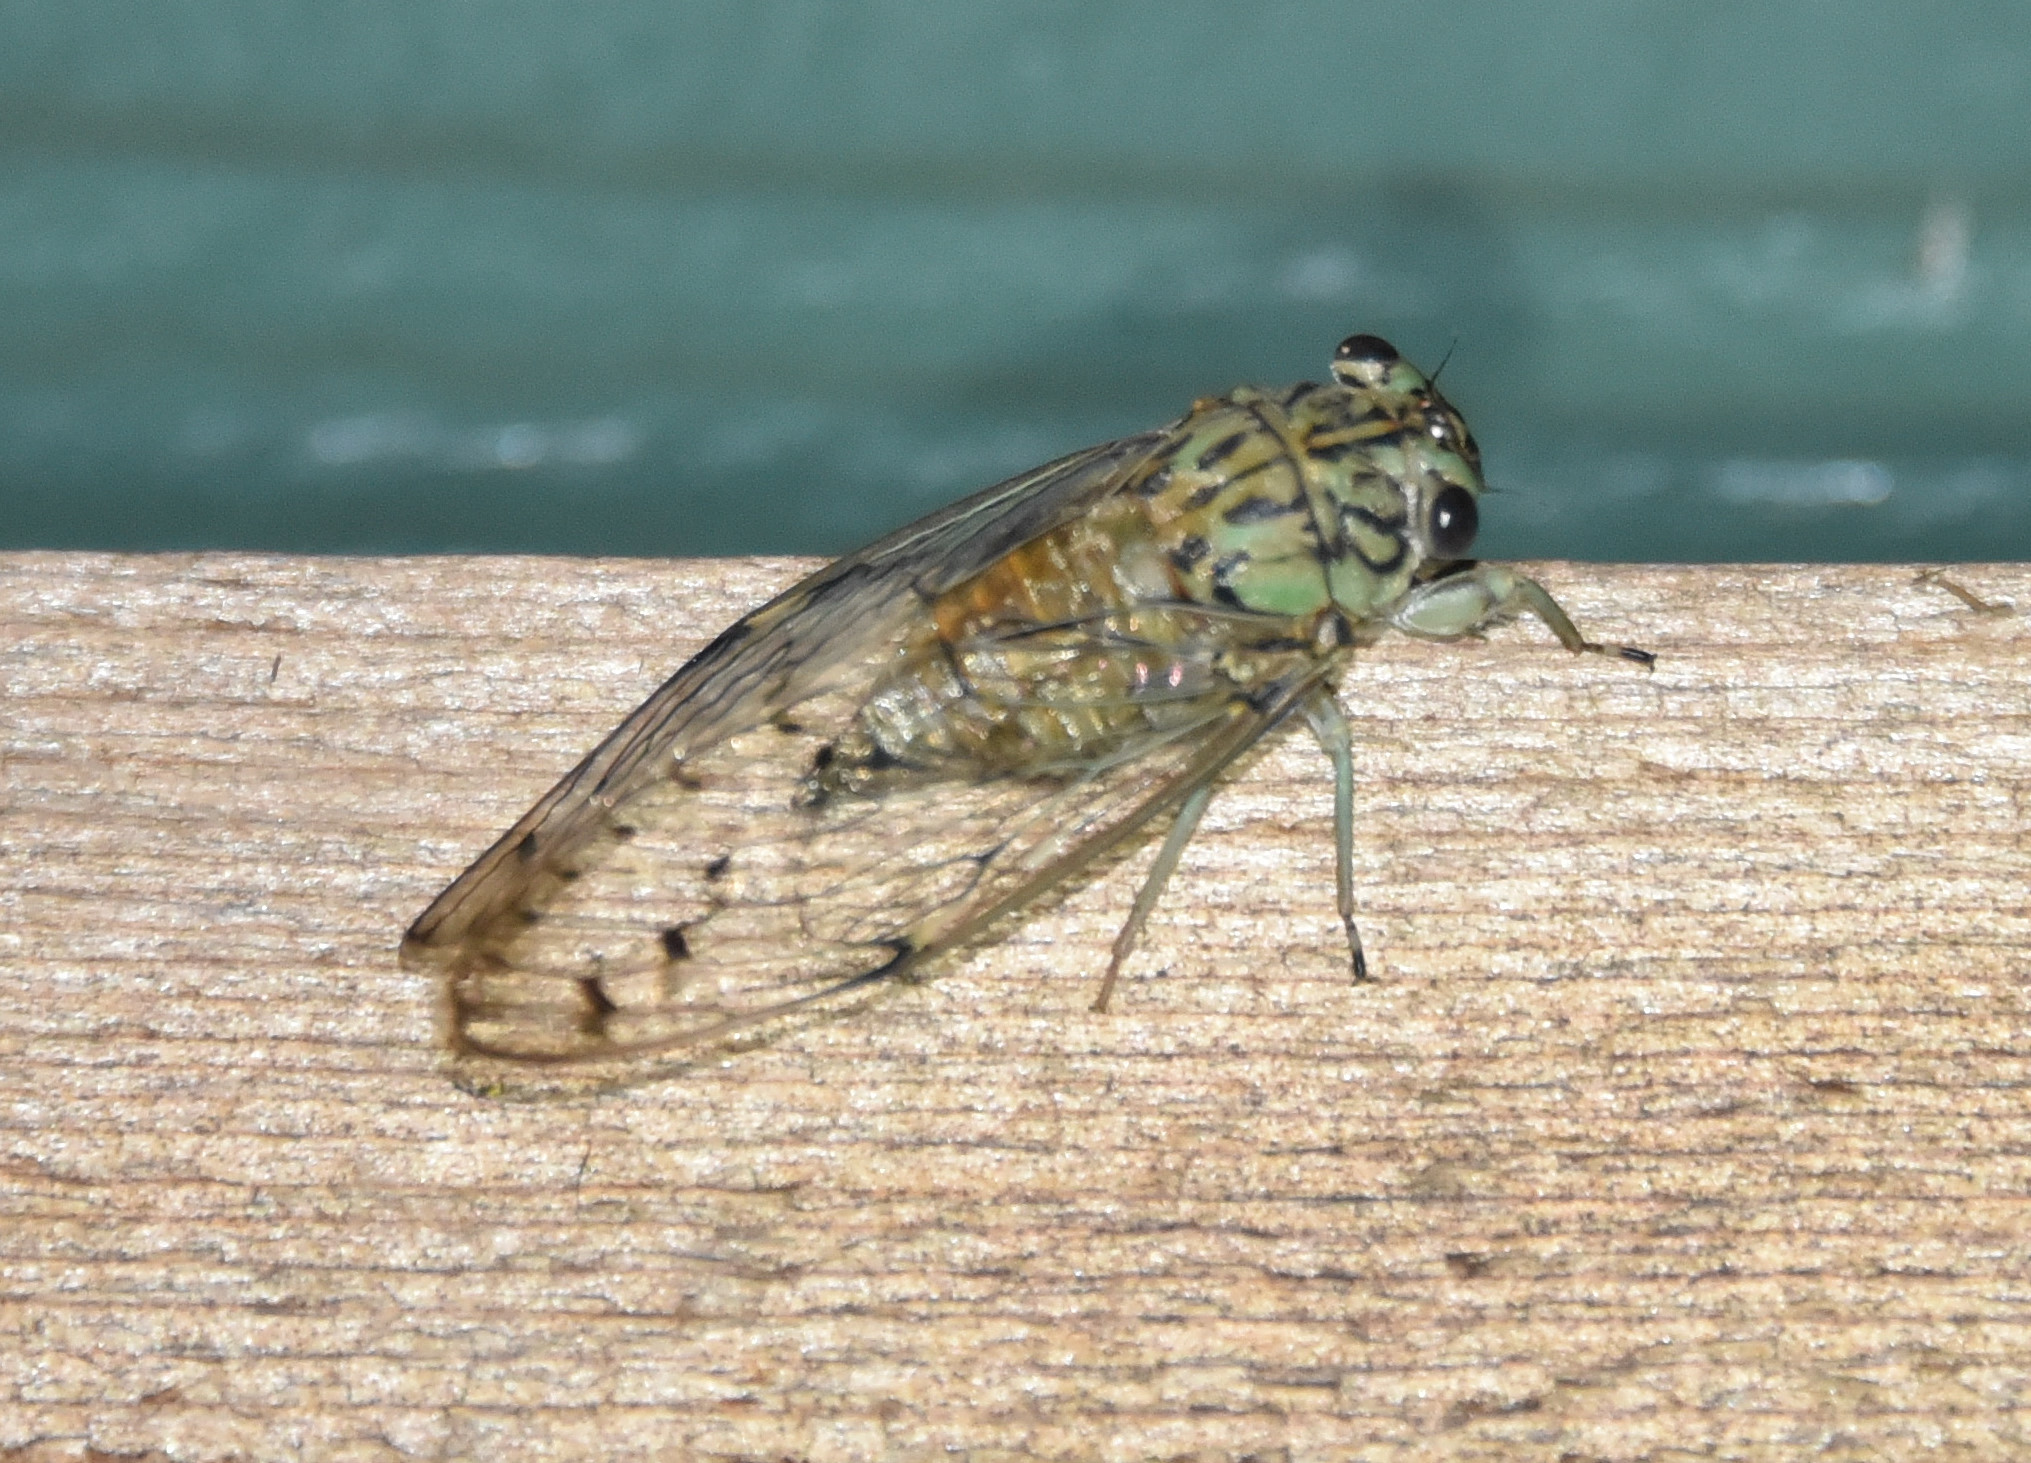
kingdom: Animalia
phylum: Arthropoda
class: Insecta
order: Hemiptera
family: Cicadidae
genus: Neocicada
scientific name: Neocicada hieroglyphica
